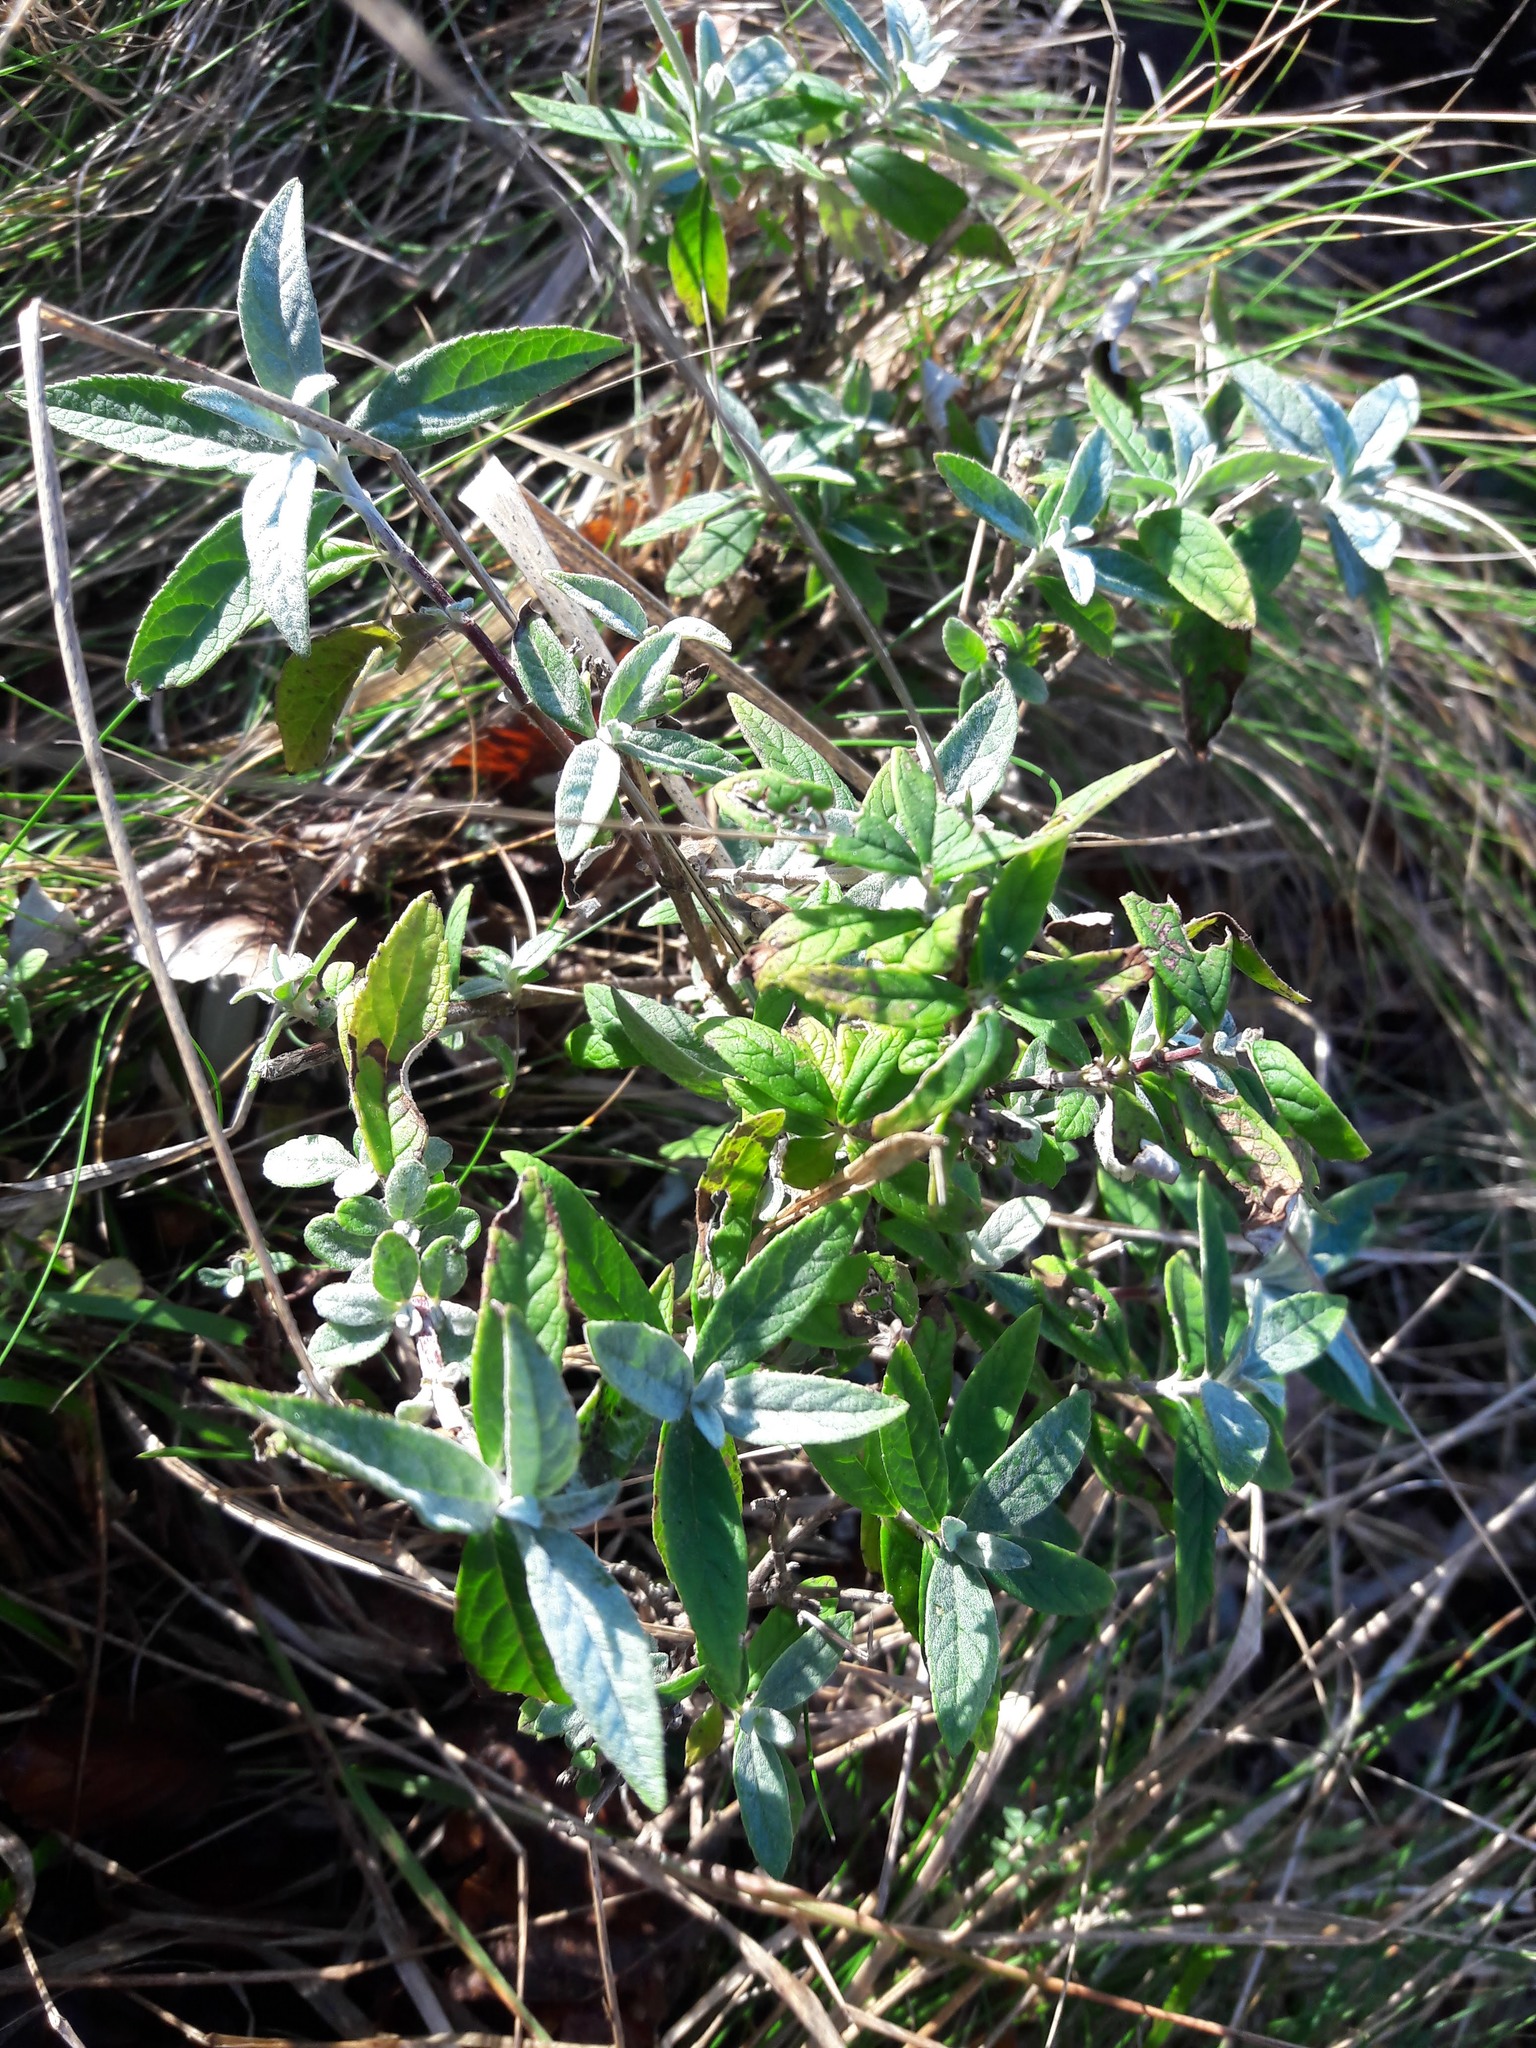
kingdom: Plantae
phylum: Tracheophyta
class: Magnoliopsida
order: Lamiales
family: Scrophulariaceae
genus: Buddleja
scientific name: Buddleja davidii
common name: Butterfly-bush
